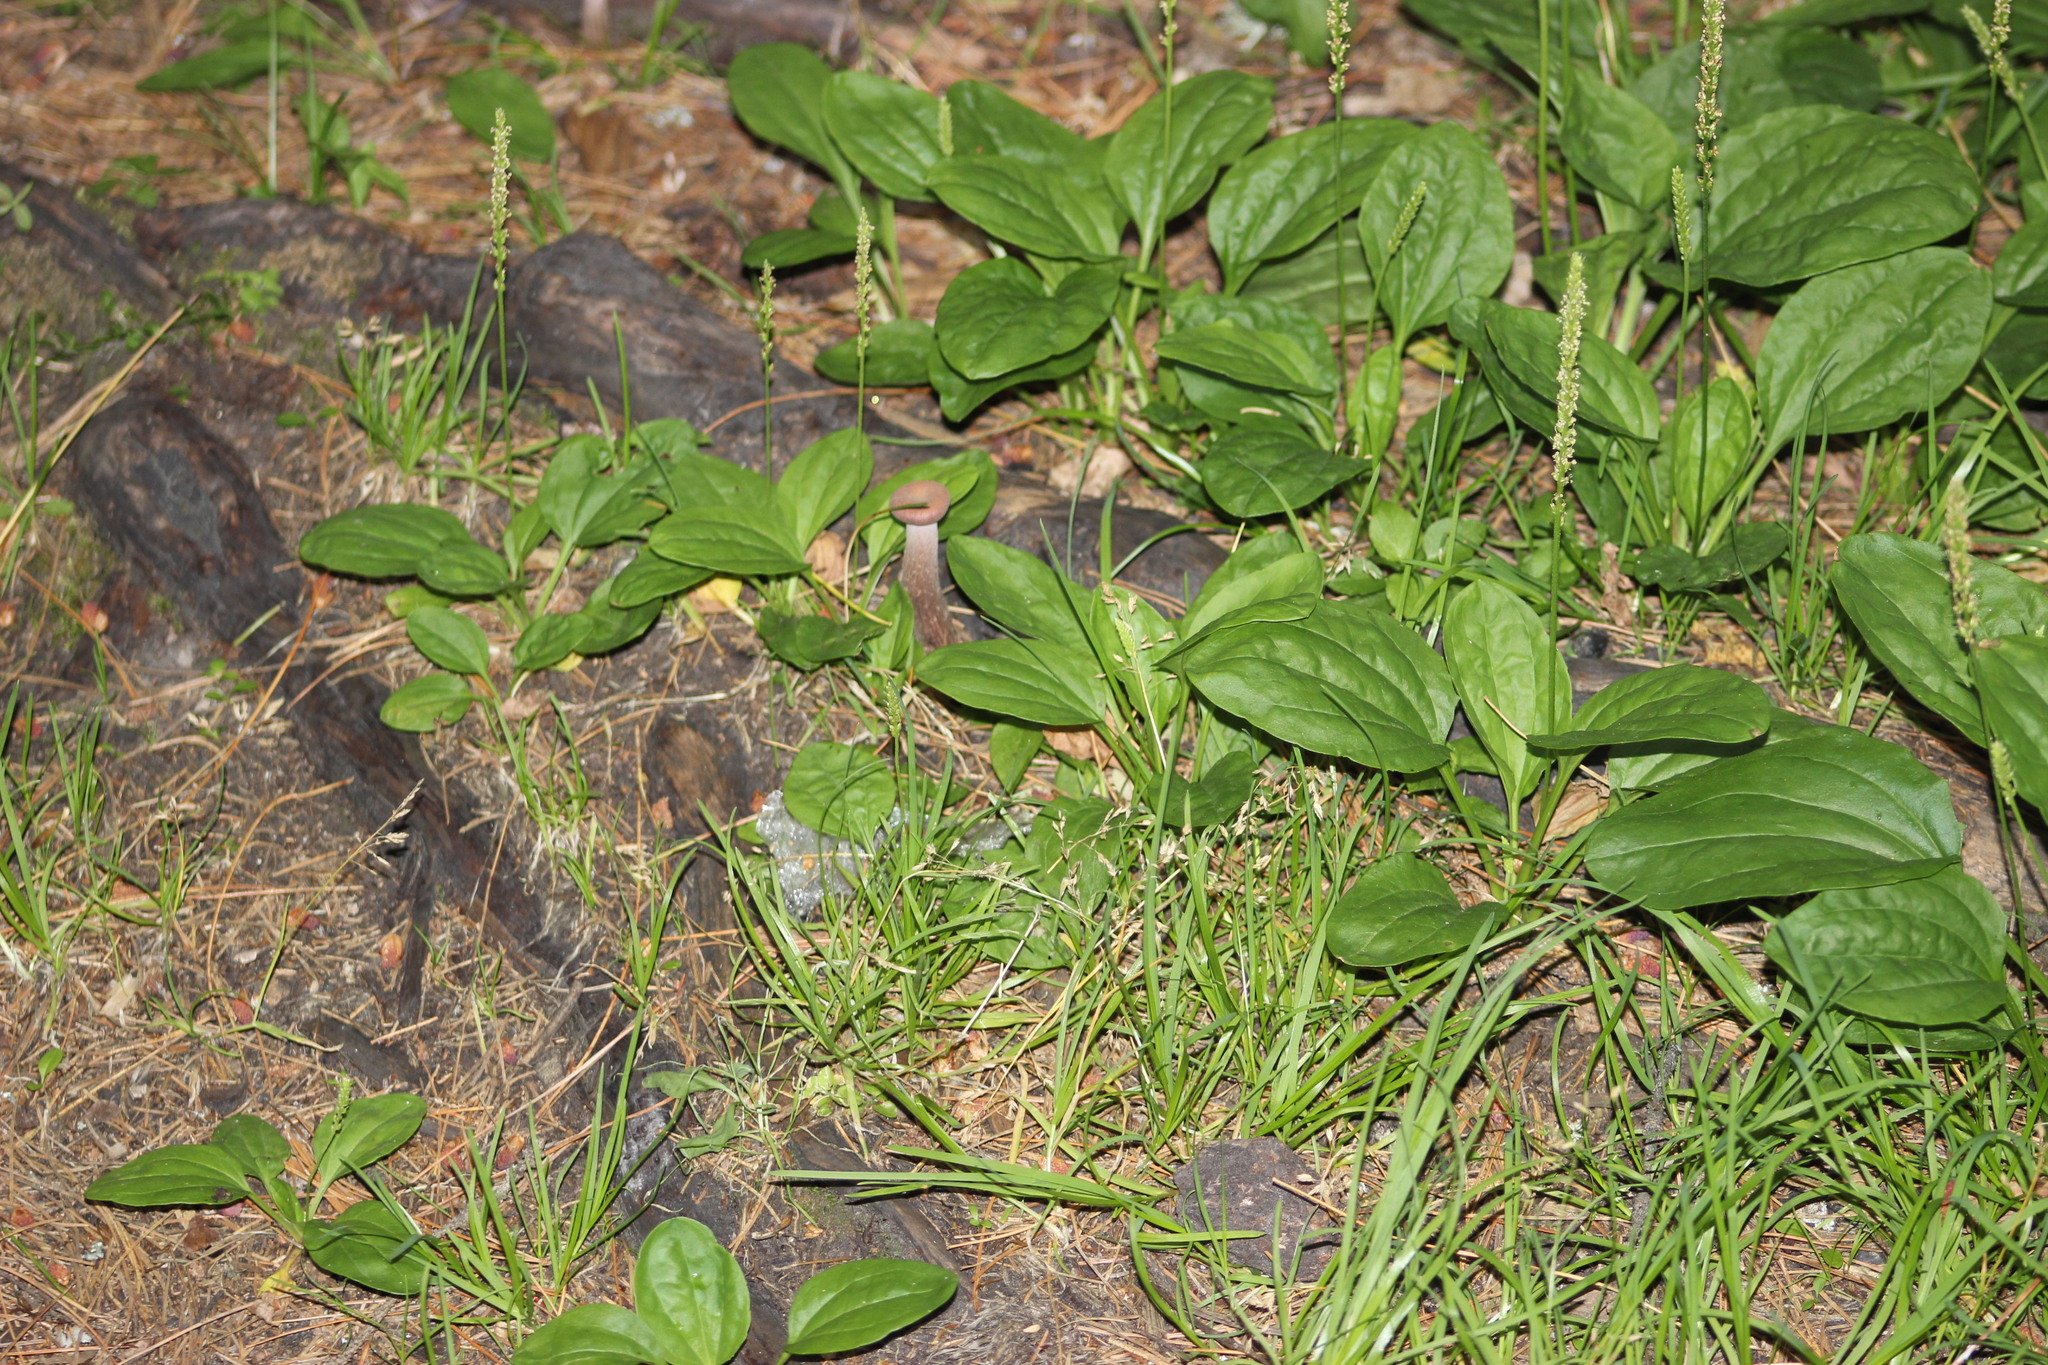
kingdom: Plantae
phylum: Tracheophyta
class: Magnoliopsida
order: Lamiales
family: Plantaginaceae
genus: Plantago
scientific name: Plantago major
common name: Common plantain
